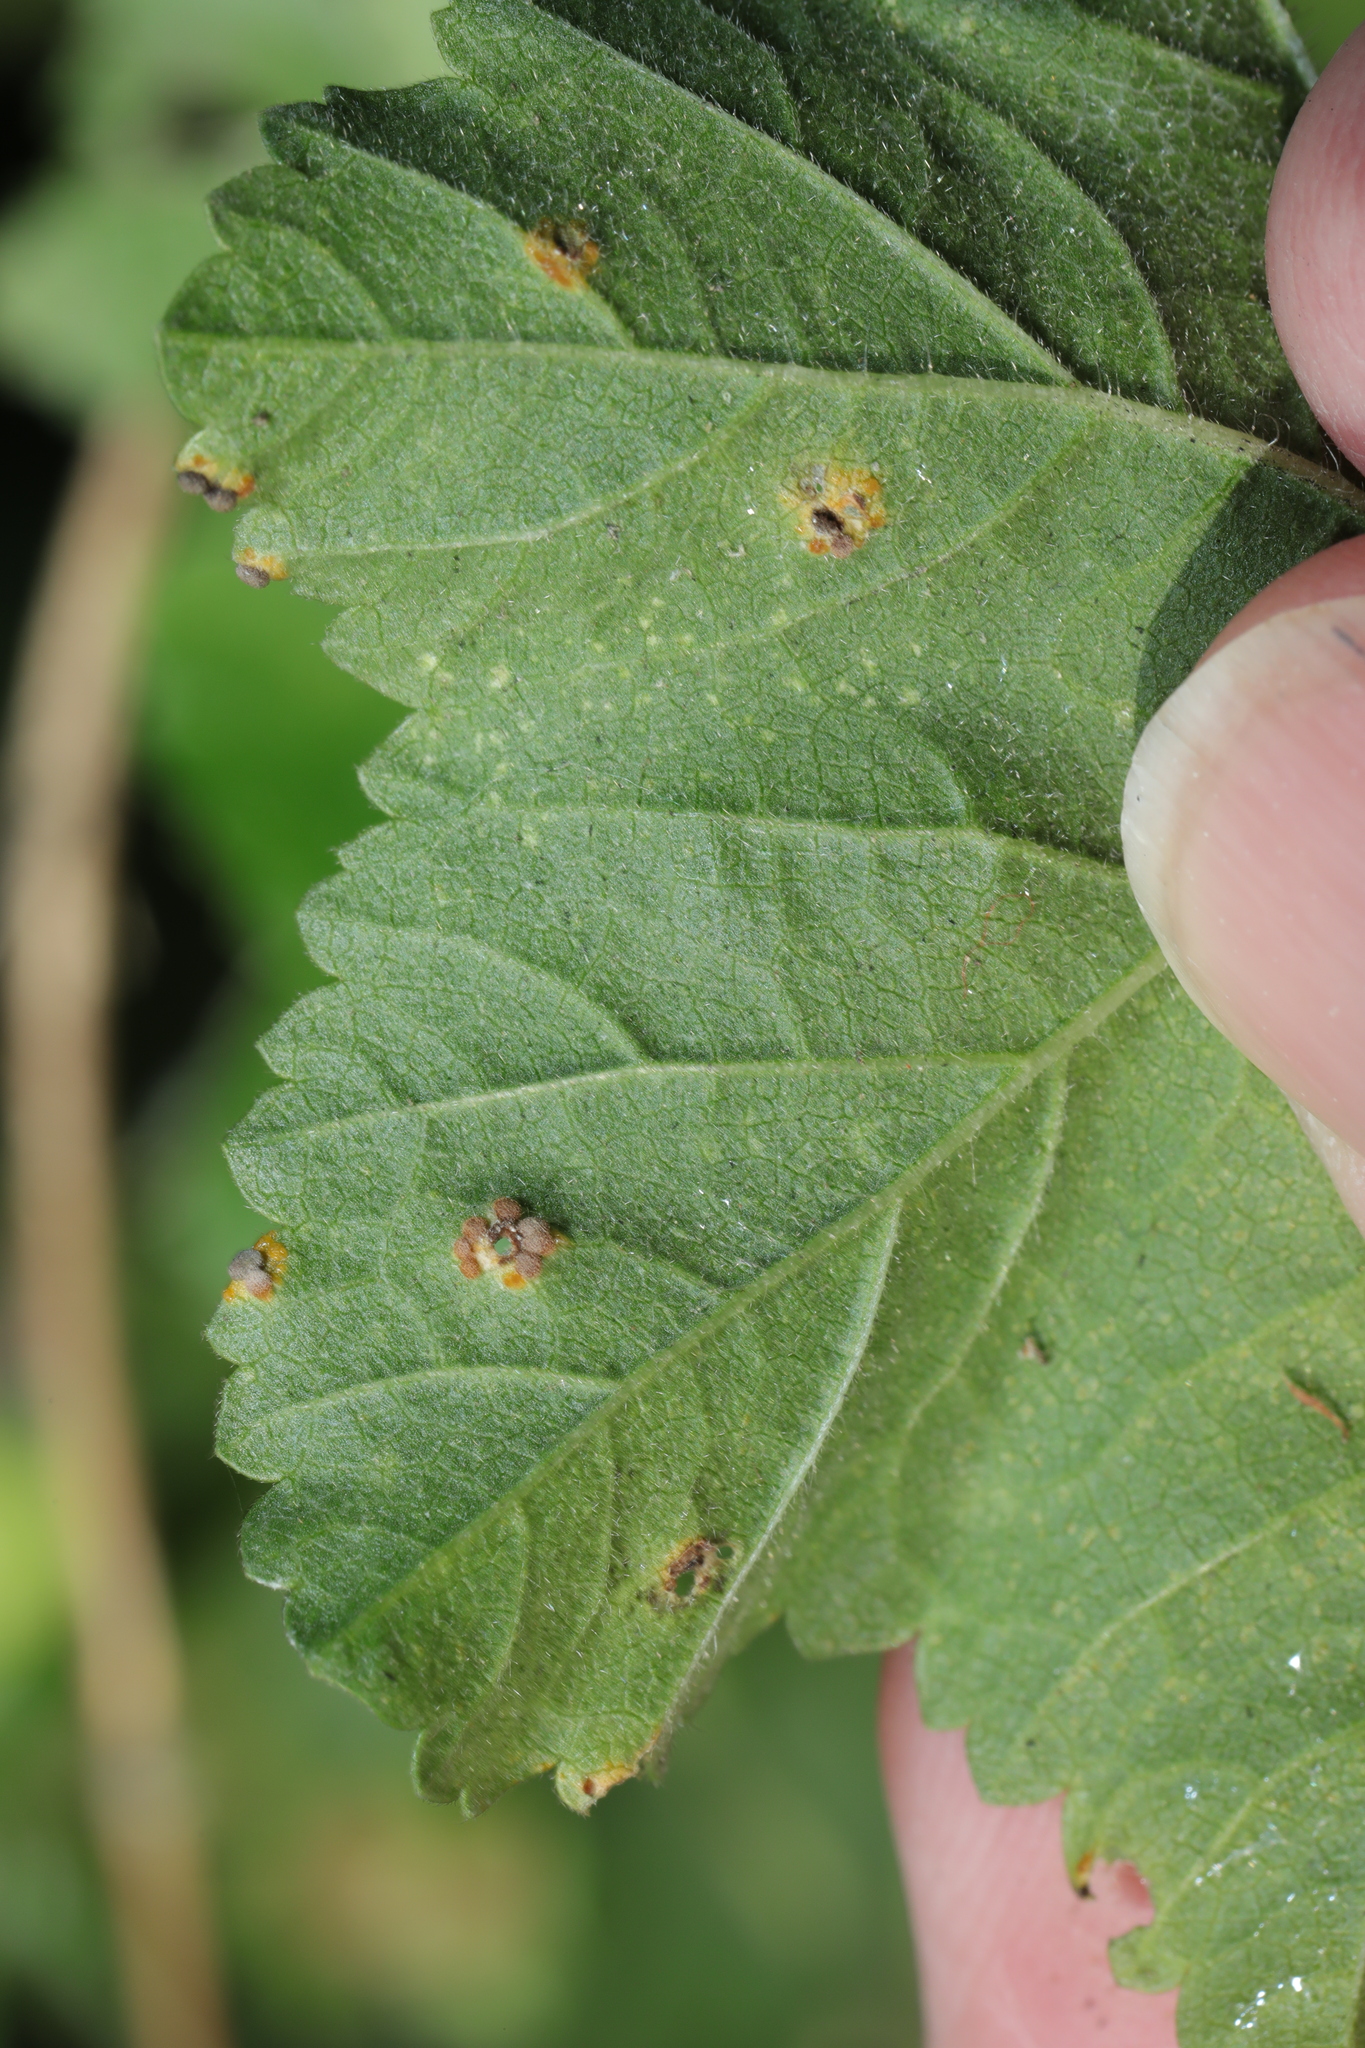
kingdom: Fungi
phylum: Basidiomycota
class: Pucciniomycetes
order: Pucciniales
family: Pucciniaceae
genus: Puccinia
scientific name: Puccinia malvacearum
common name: Hollyhock rust
